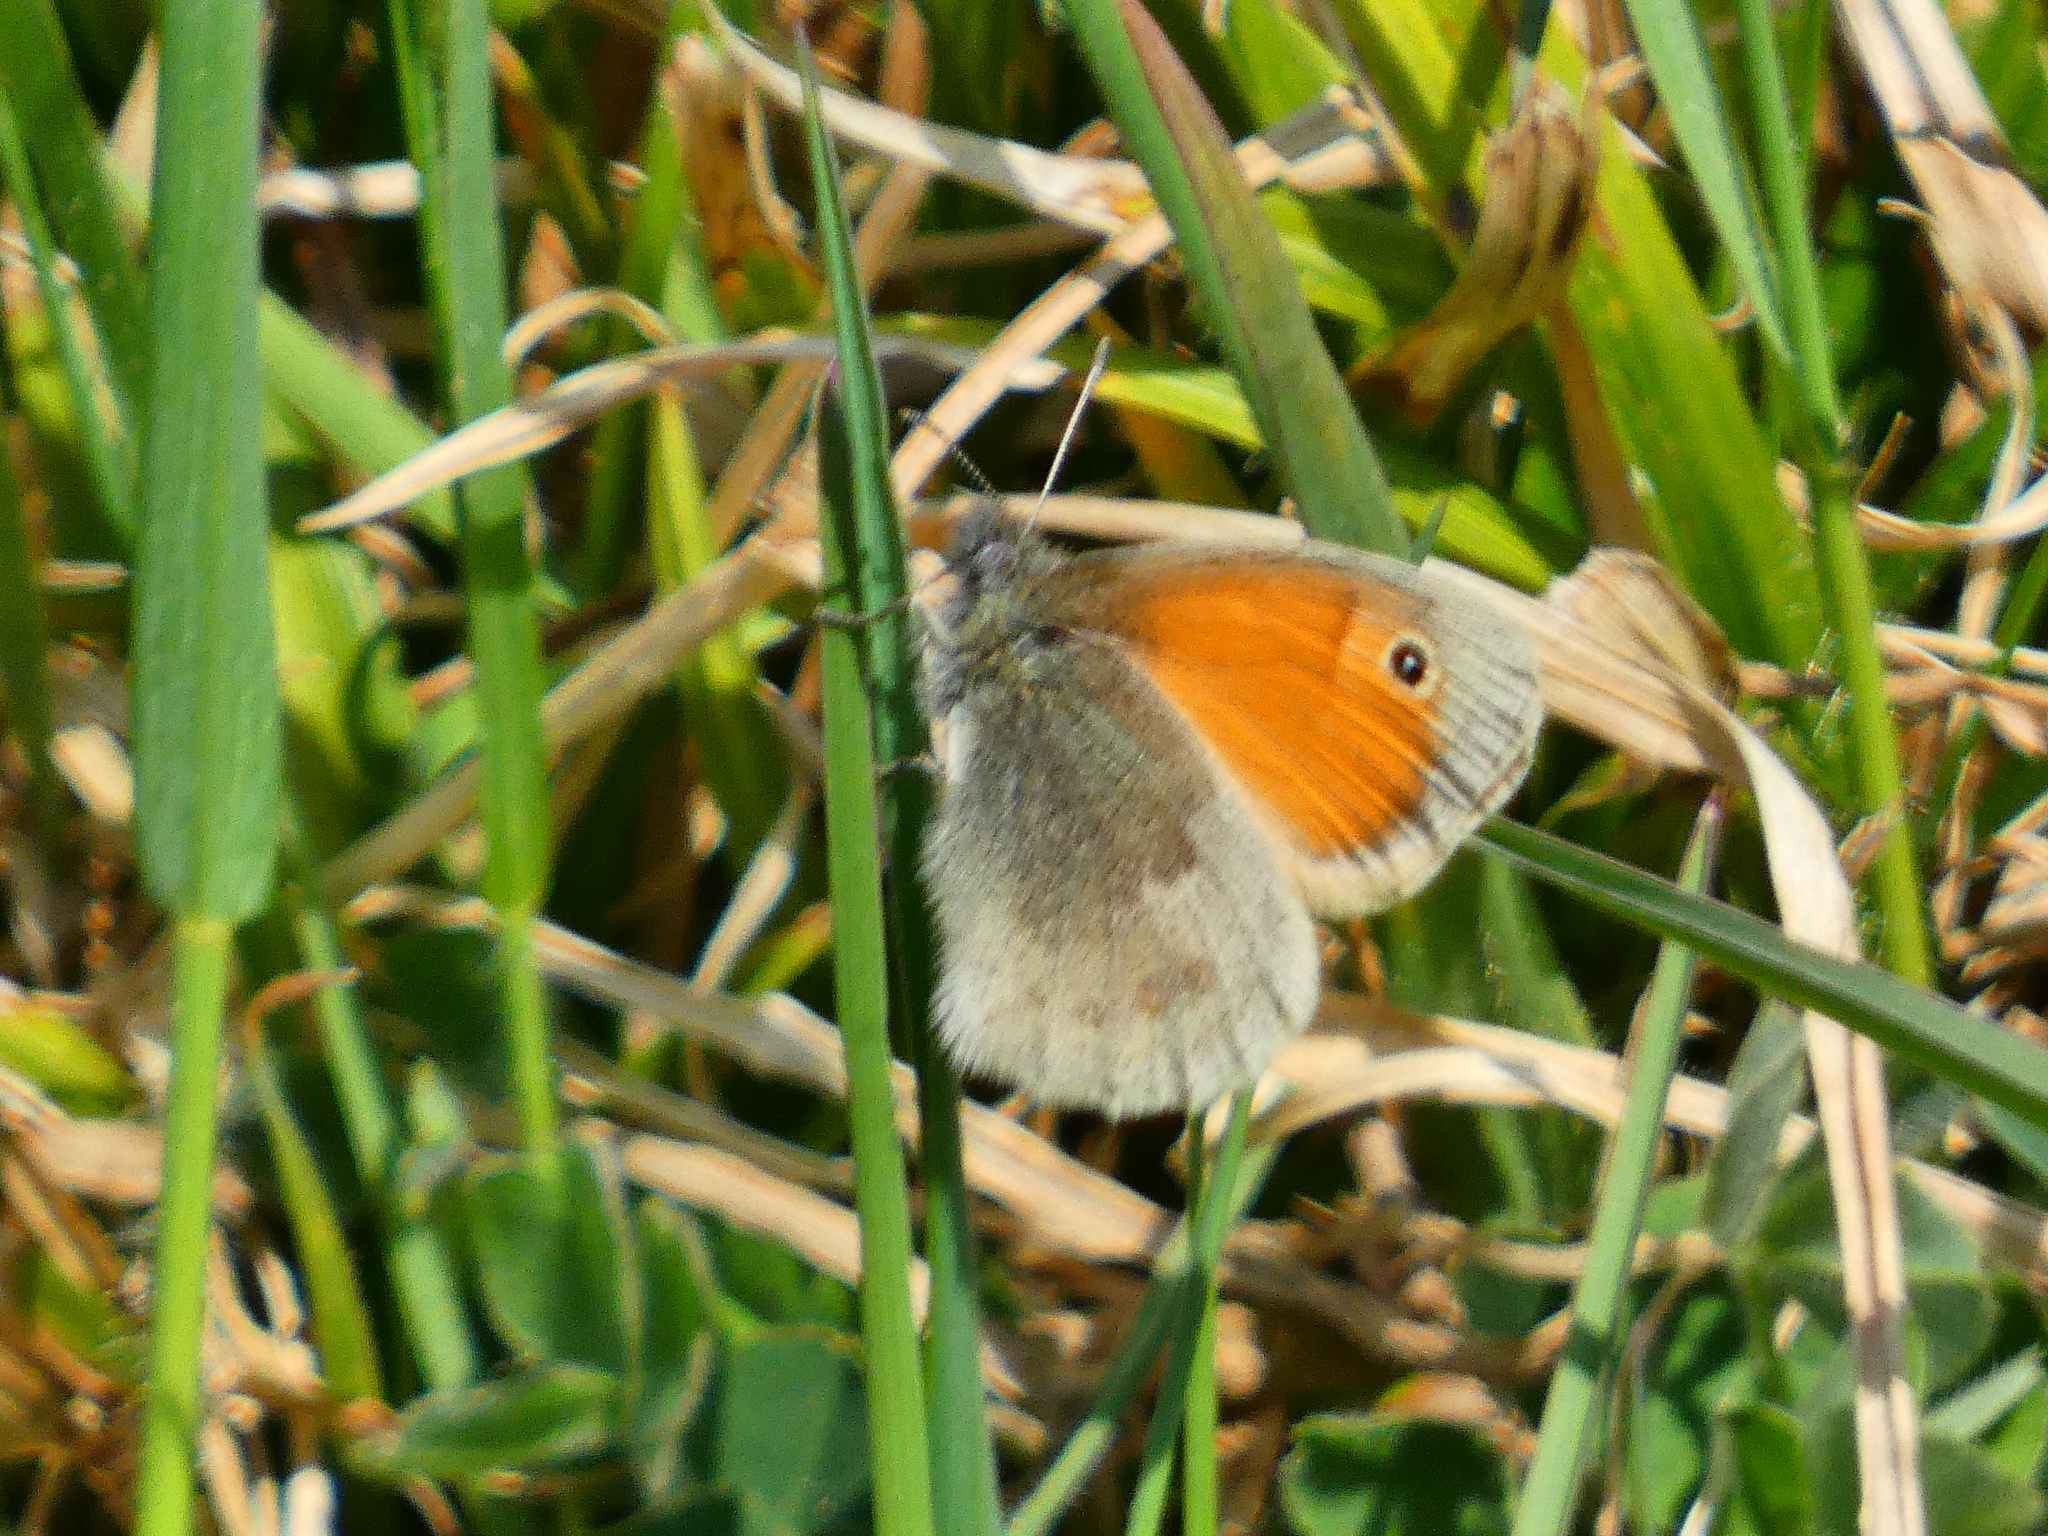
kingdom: Animalia
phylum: Arthropoda
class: Insecta
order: Lepidoptera
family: Nymphalidae
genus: Coenonympha
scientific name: Coenonympha pamphilus
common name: Small heath
